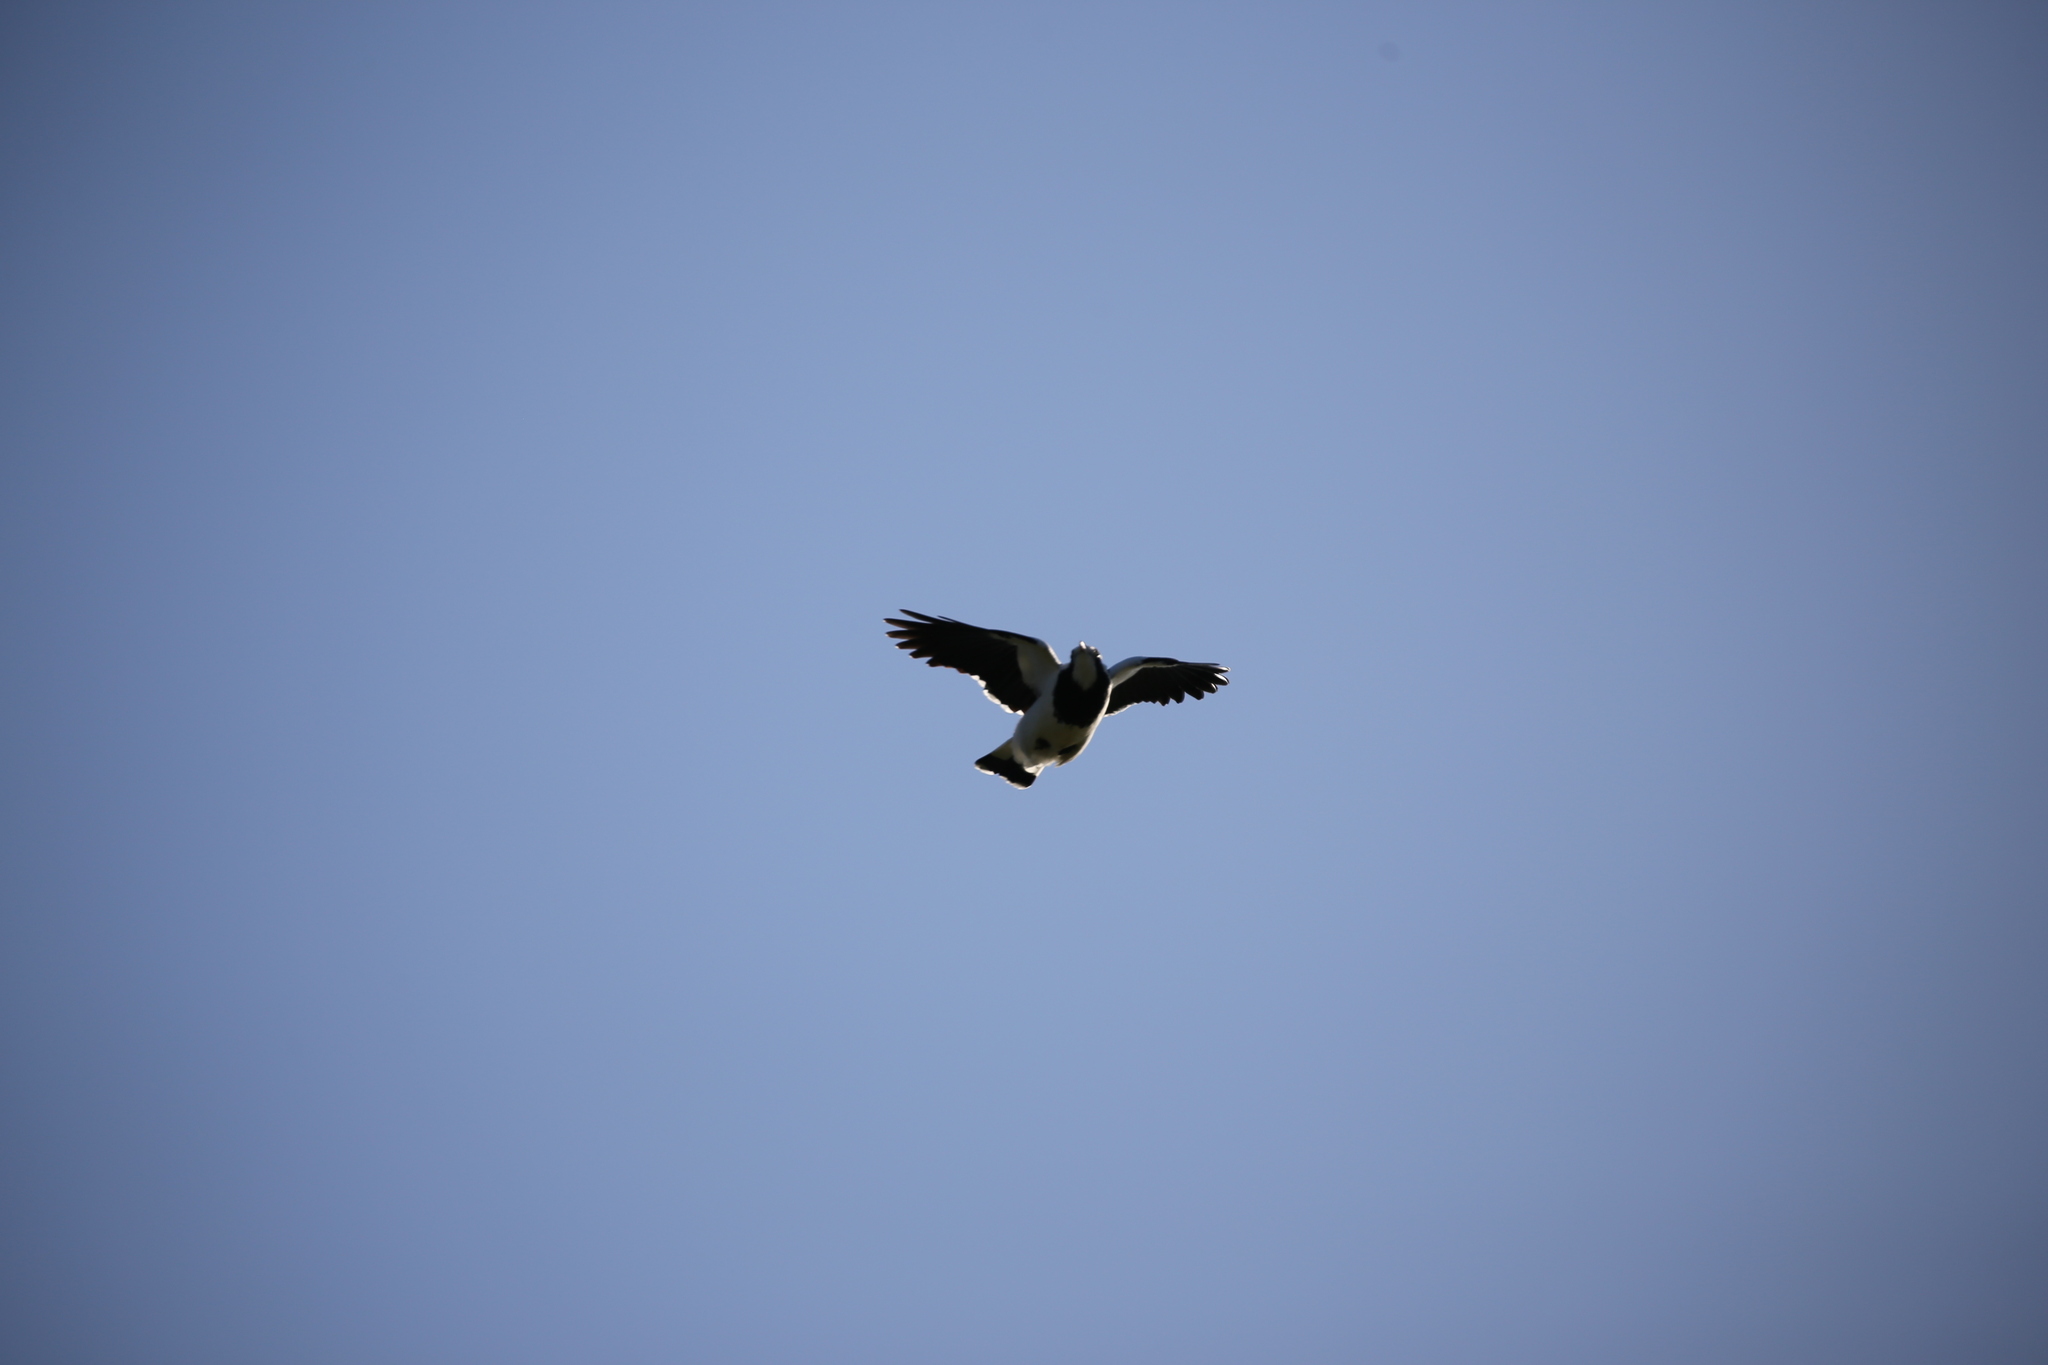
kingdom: Animalia
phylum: Chordata
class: Aves
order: Passeriformes
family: Monarchidae
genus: Grallina
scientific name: Grallina cyanoleuca
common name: Magpie-lark
